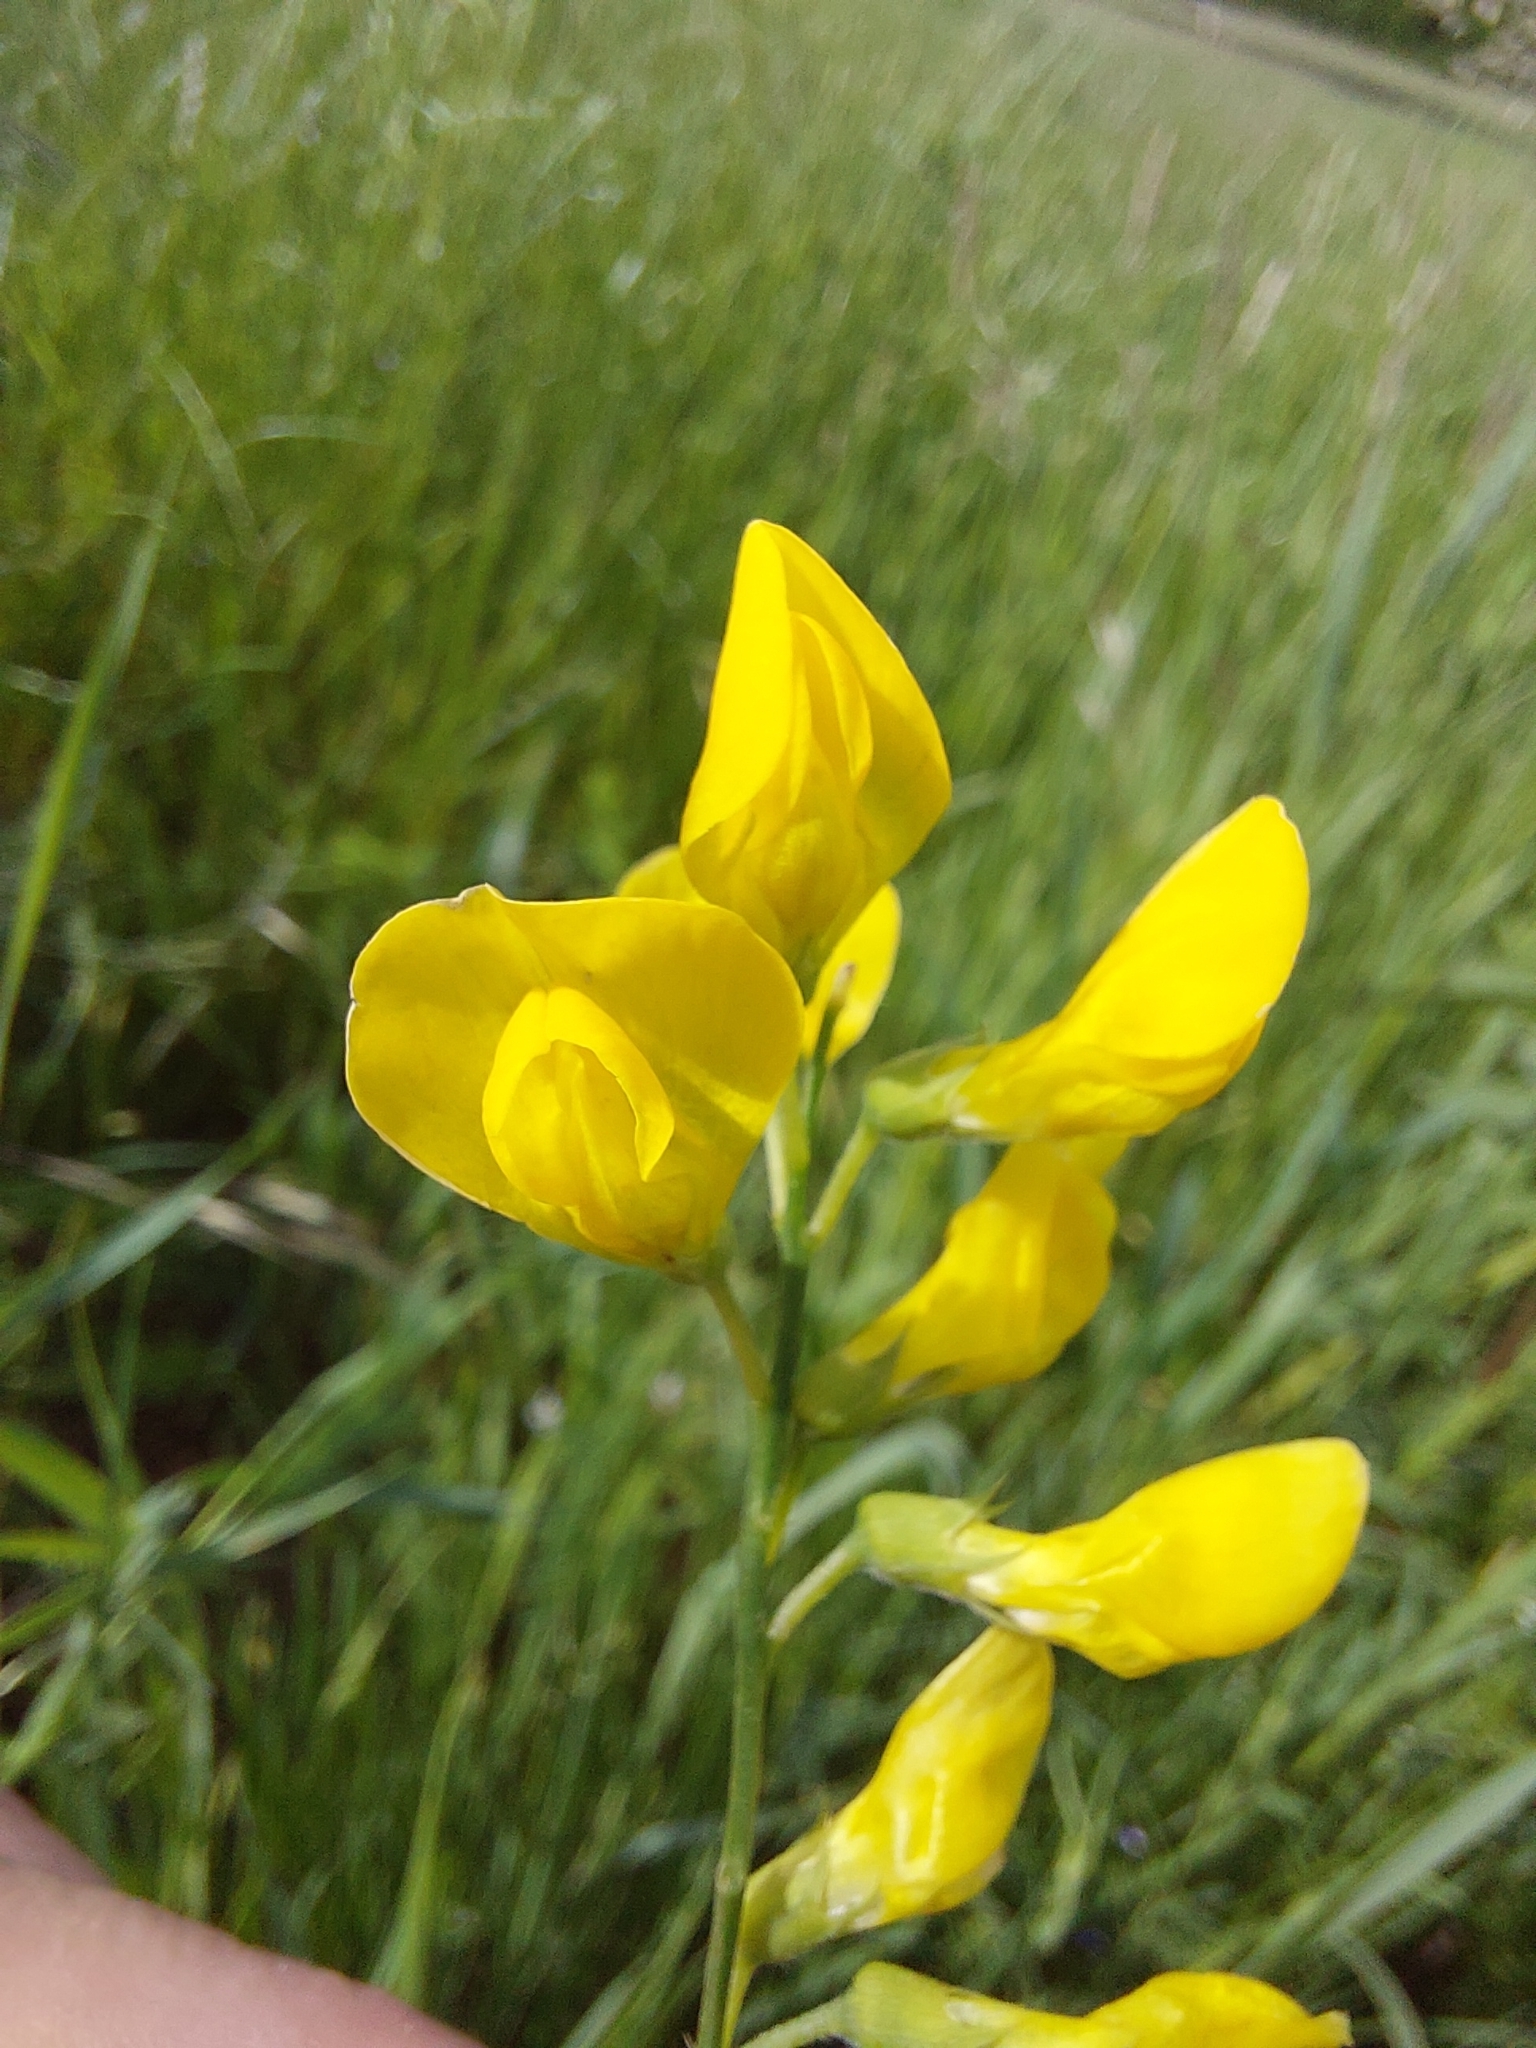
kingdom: Plantae
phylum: Tracheophyta
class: Magnoliopsida
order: Fabales
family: Fabaceae
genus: Lathyrus
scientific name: Lathyrus pratensis
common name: Meadow vetchling
